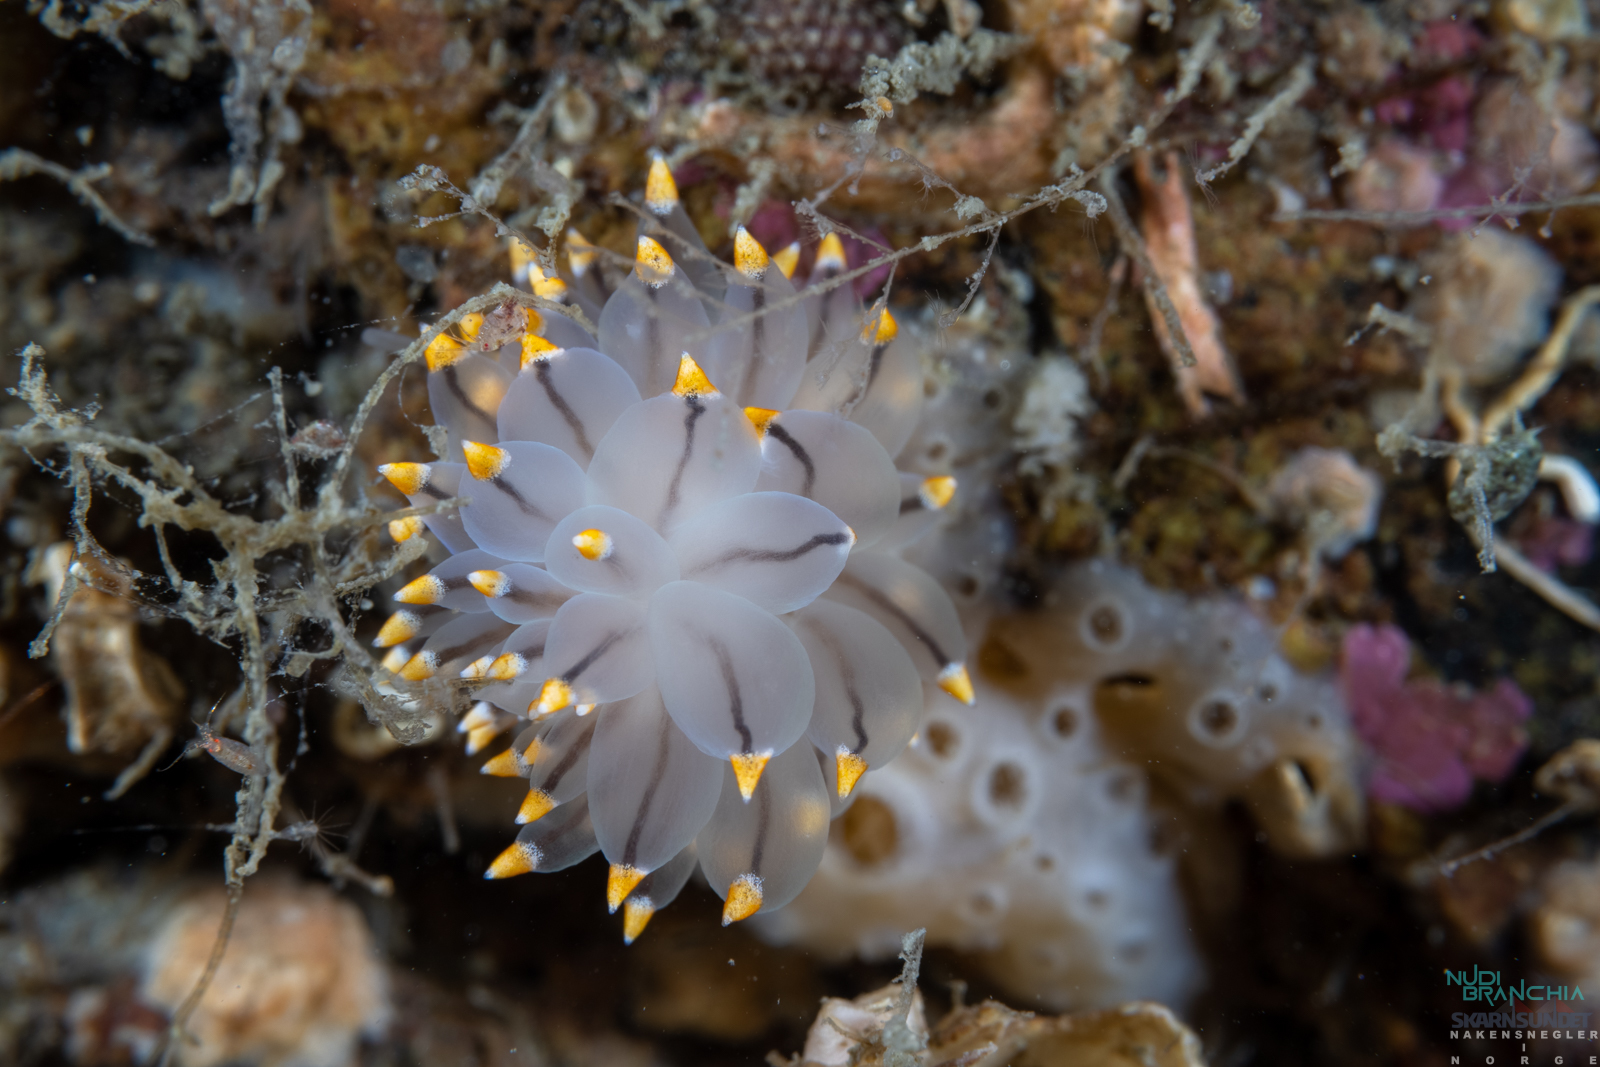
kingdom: Animalia
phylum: Mollusca
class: Gastropoda
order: Nudibranchia
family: Eubranchidae
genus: Eubranchus
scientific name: Eubranchus tricolor
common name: Painted balloon aeolis
